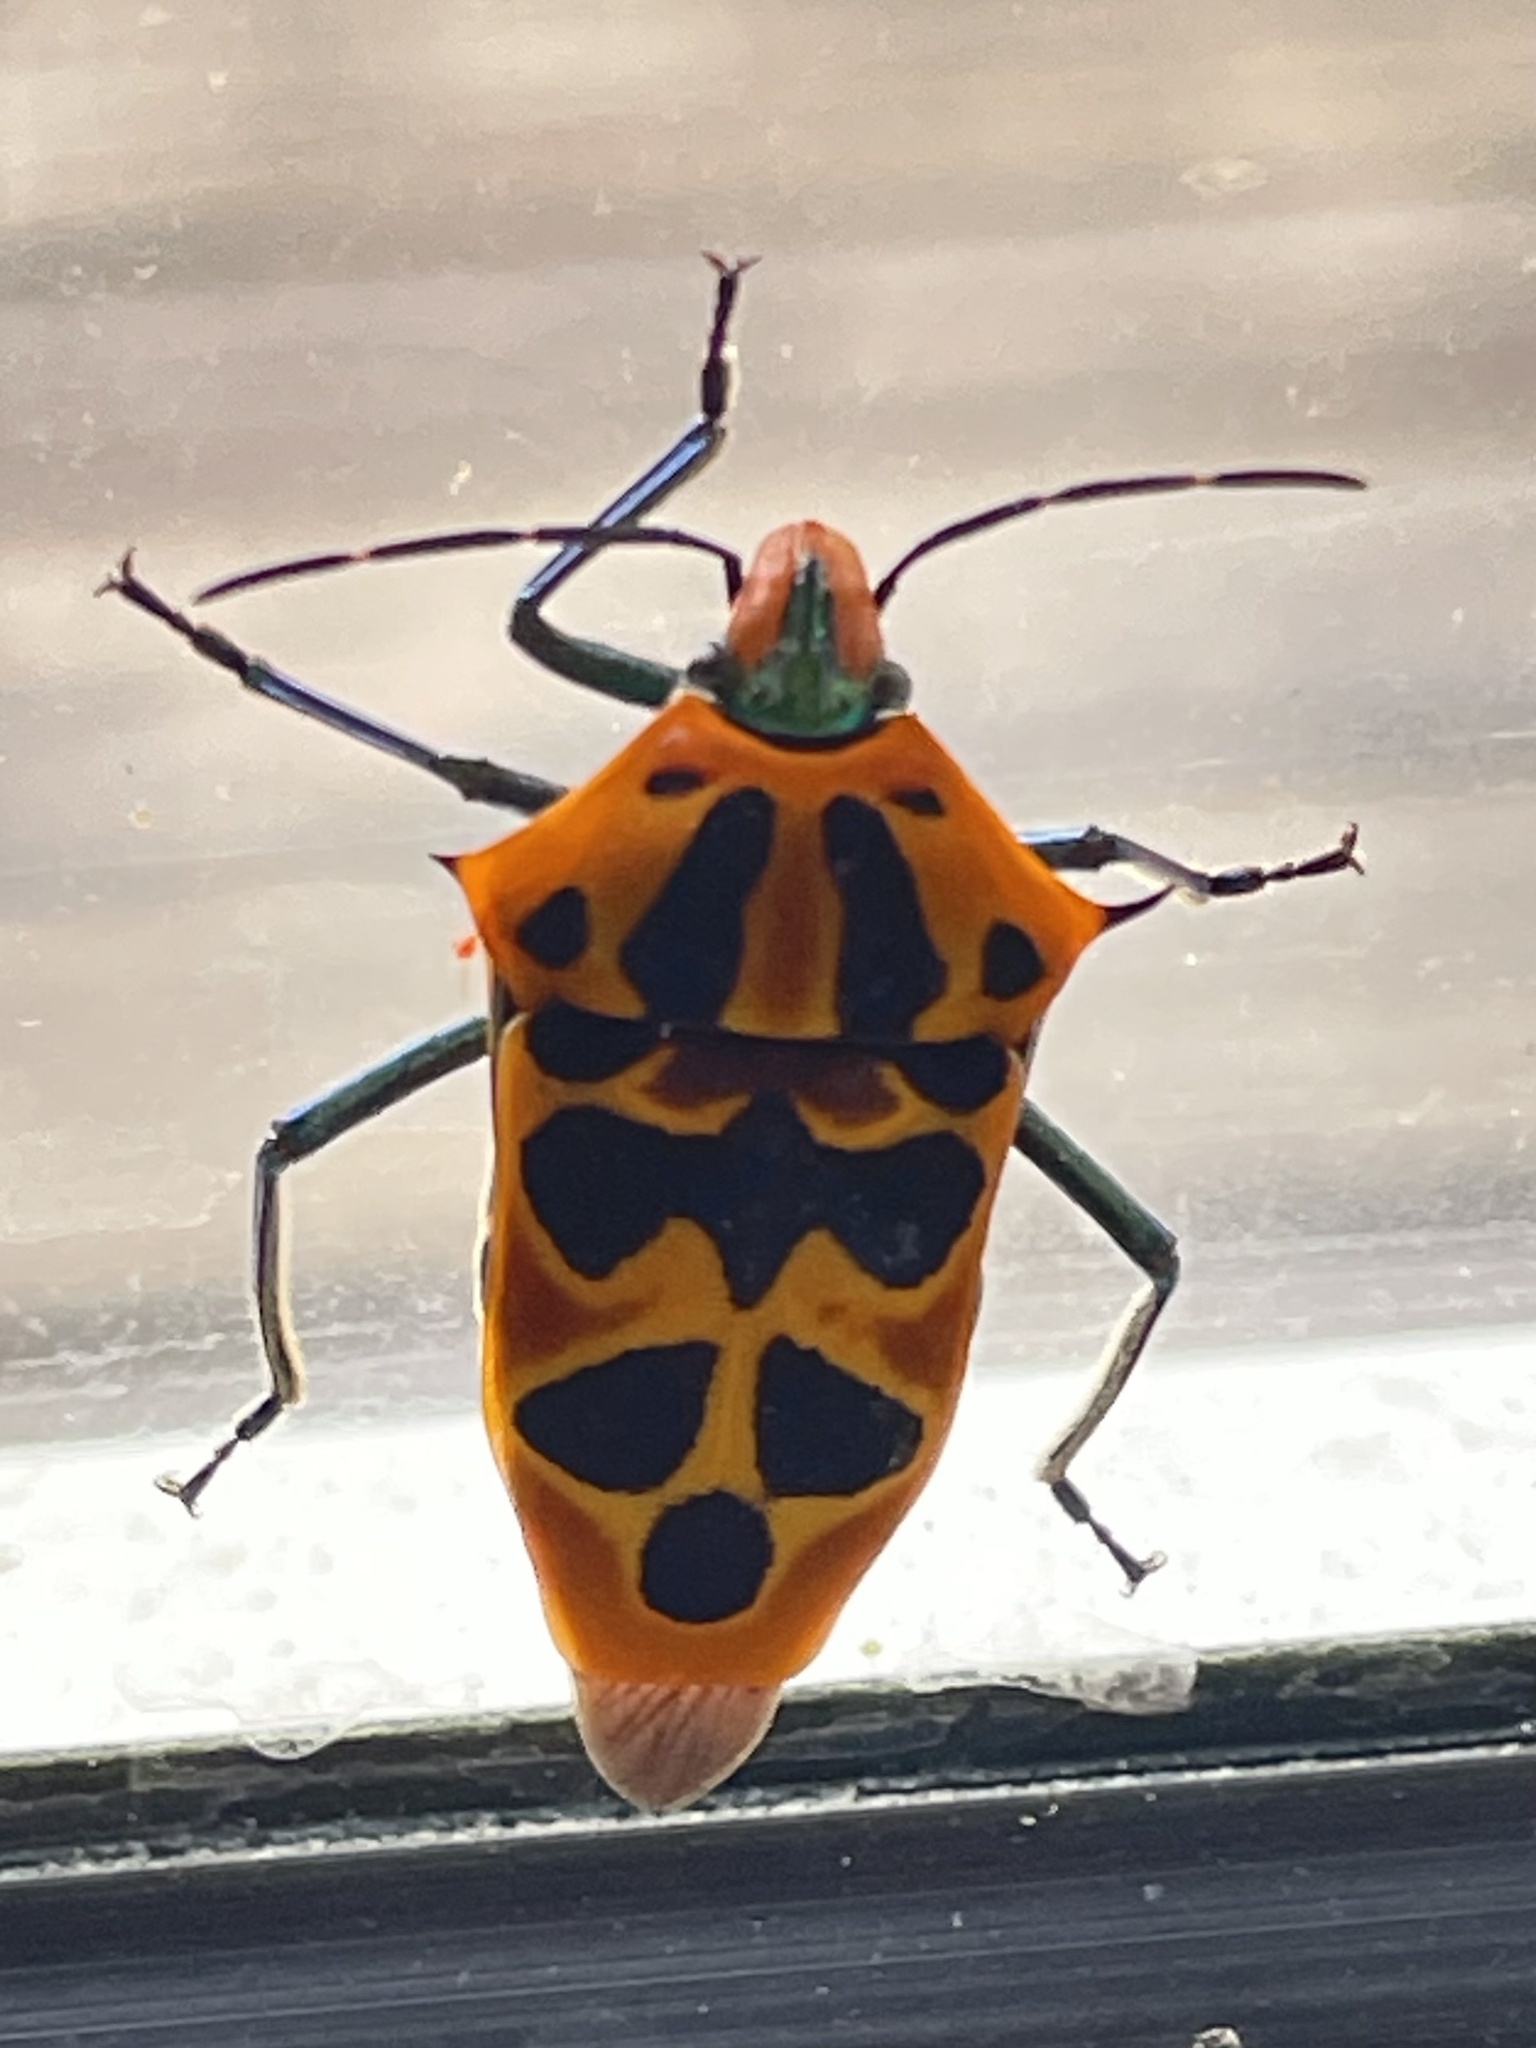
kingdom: Animalia
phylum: Arthropoda
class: Insecta
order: Hemiptera
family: Scutelleridae
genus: Cantao
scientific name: Cantao ocellatus
